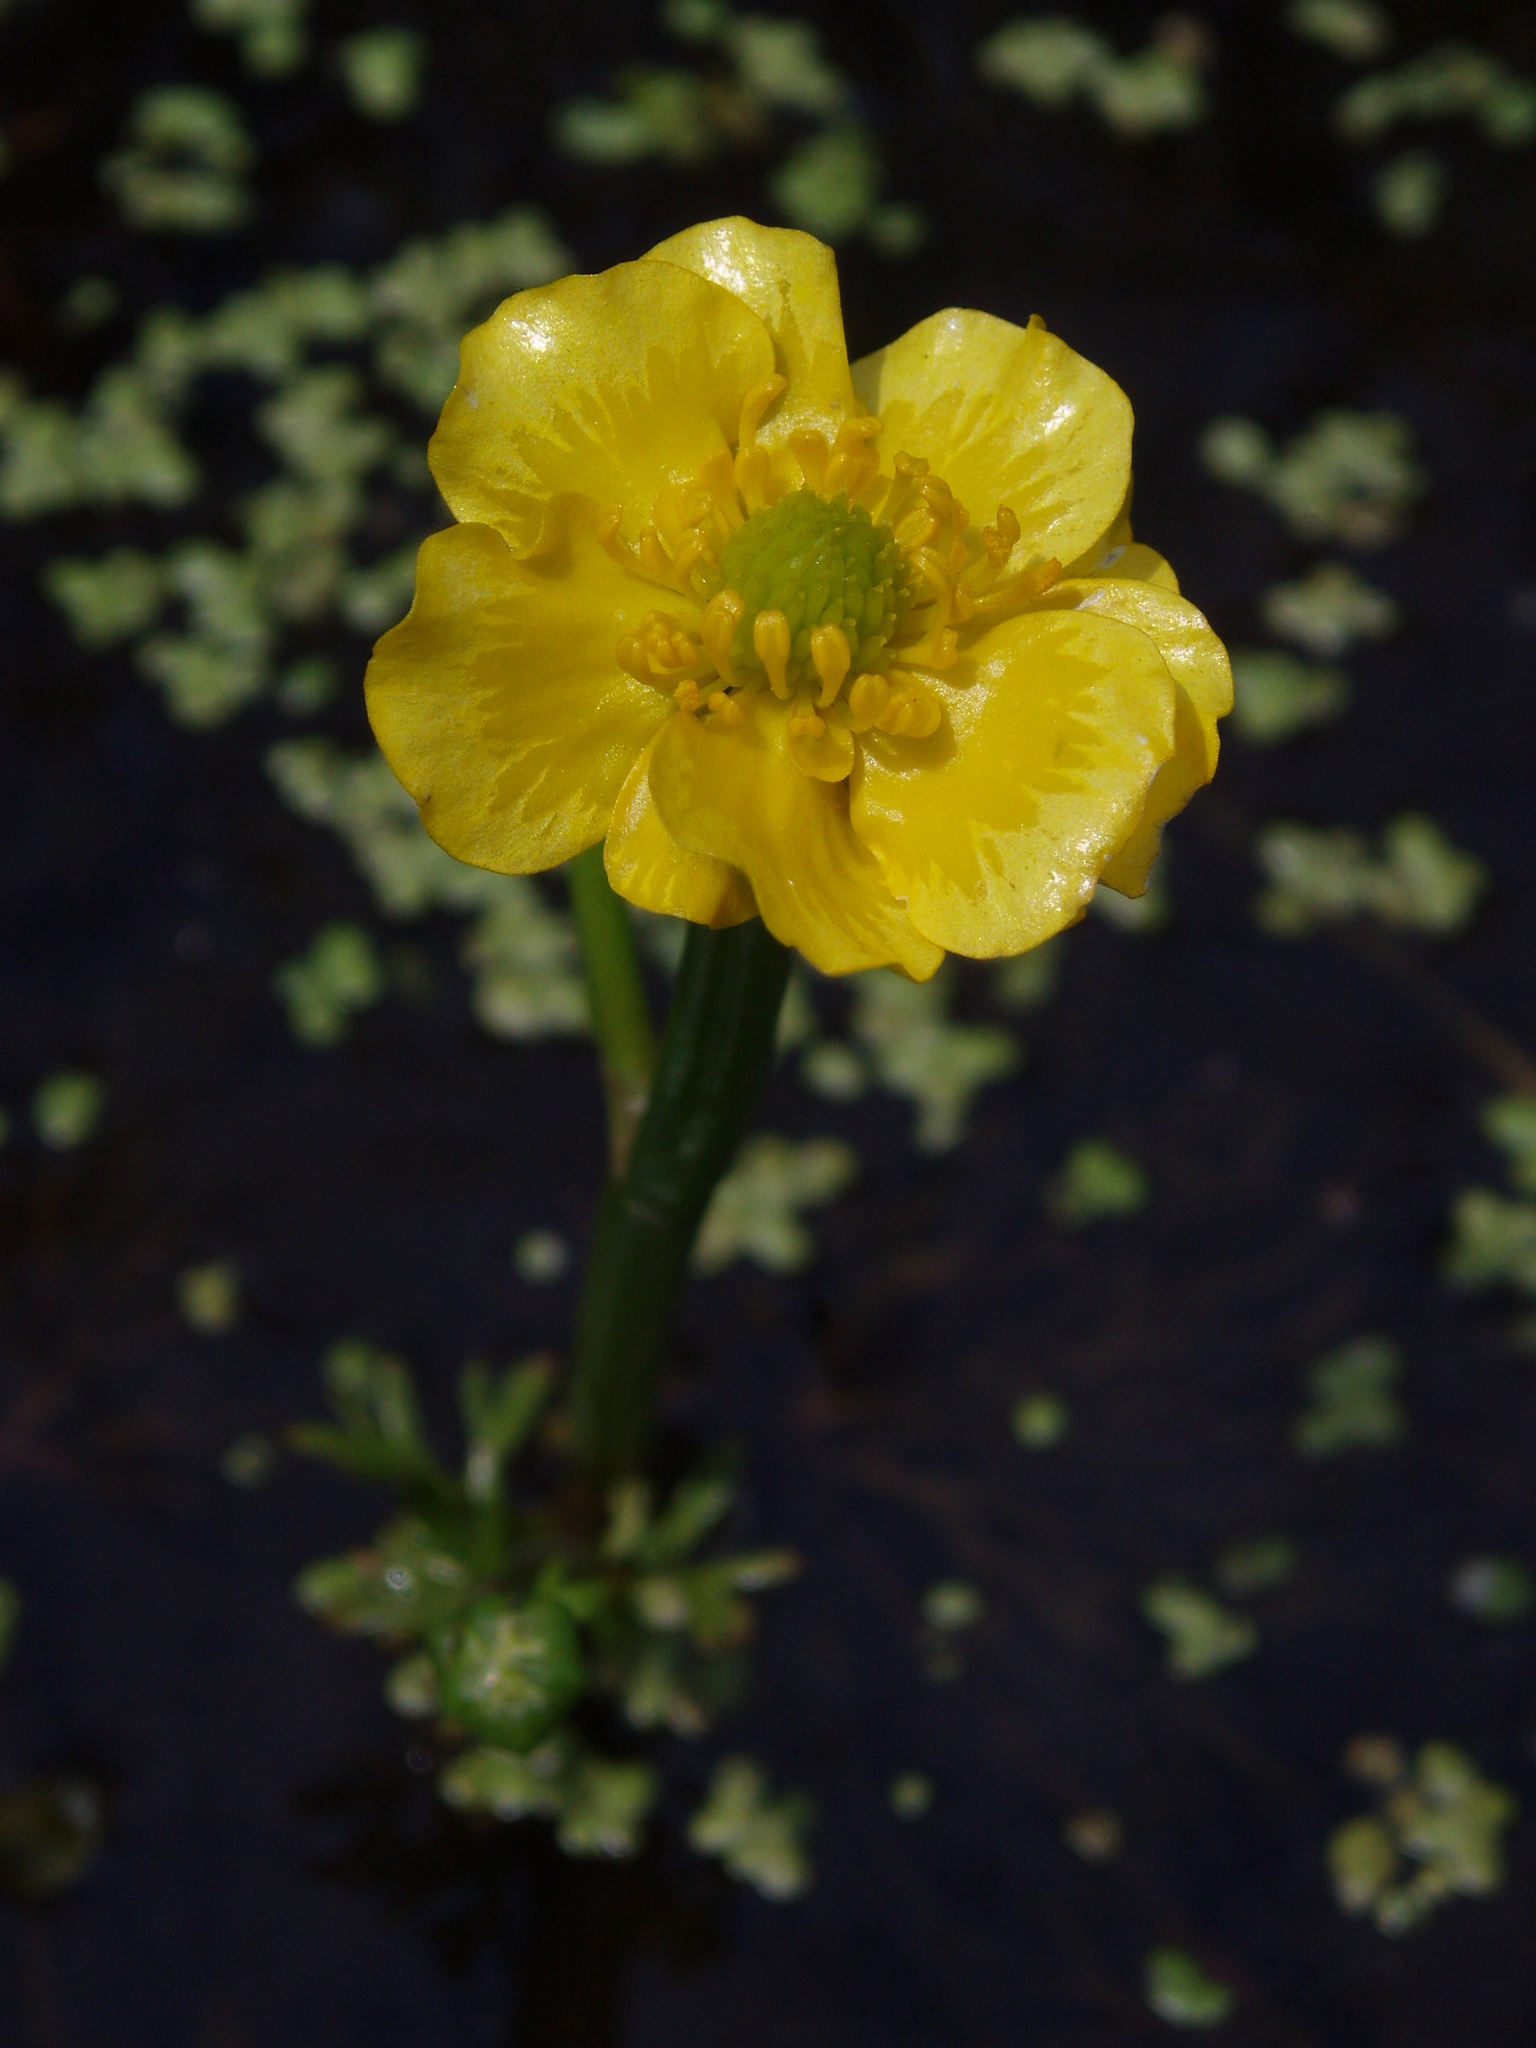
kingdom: Plantae
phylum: Tracheophyta
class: Magnoliopsida
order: Ranunculales
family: Ranunculaceae
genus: Ranunculus
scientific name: Ranunculus flabellaris
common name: Yellow water-crowfoot
